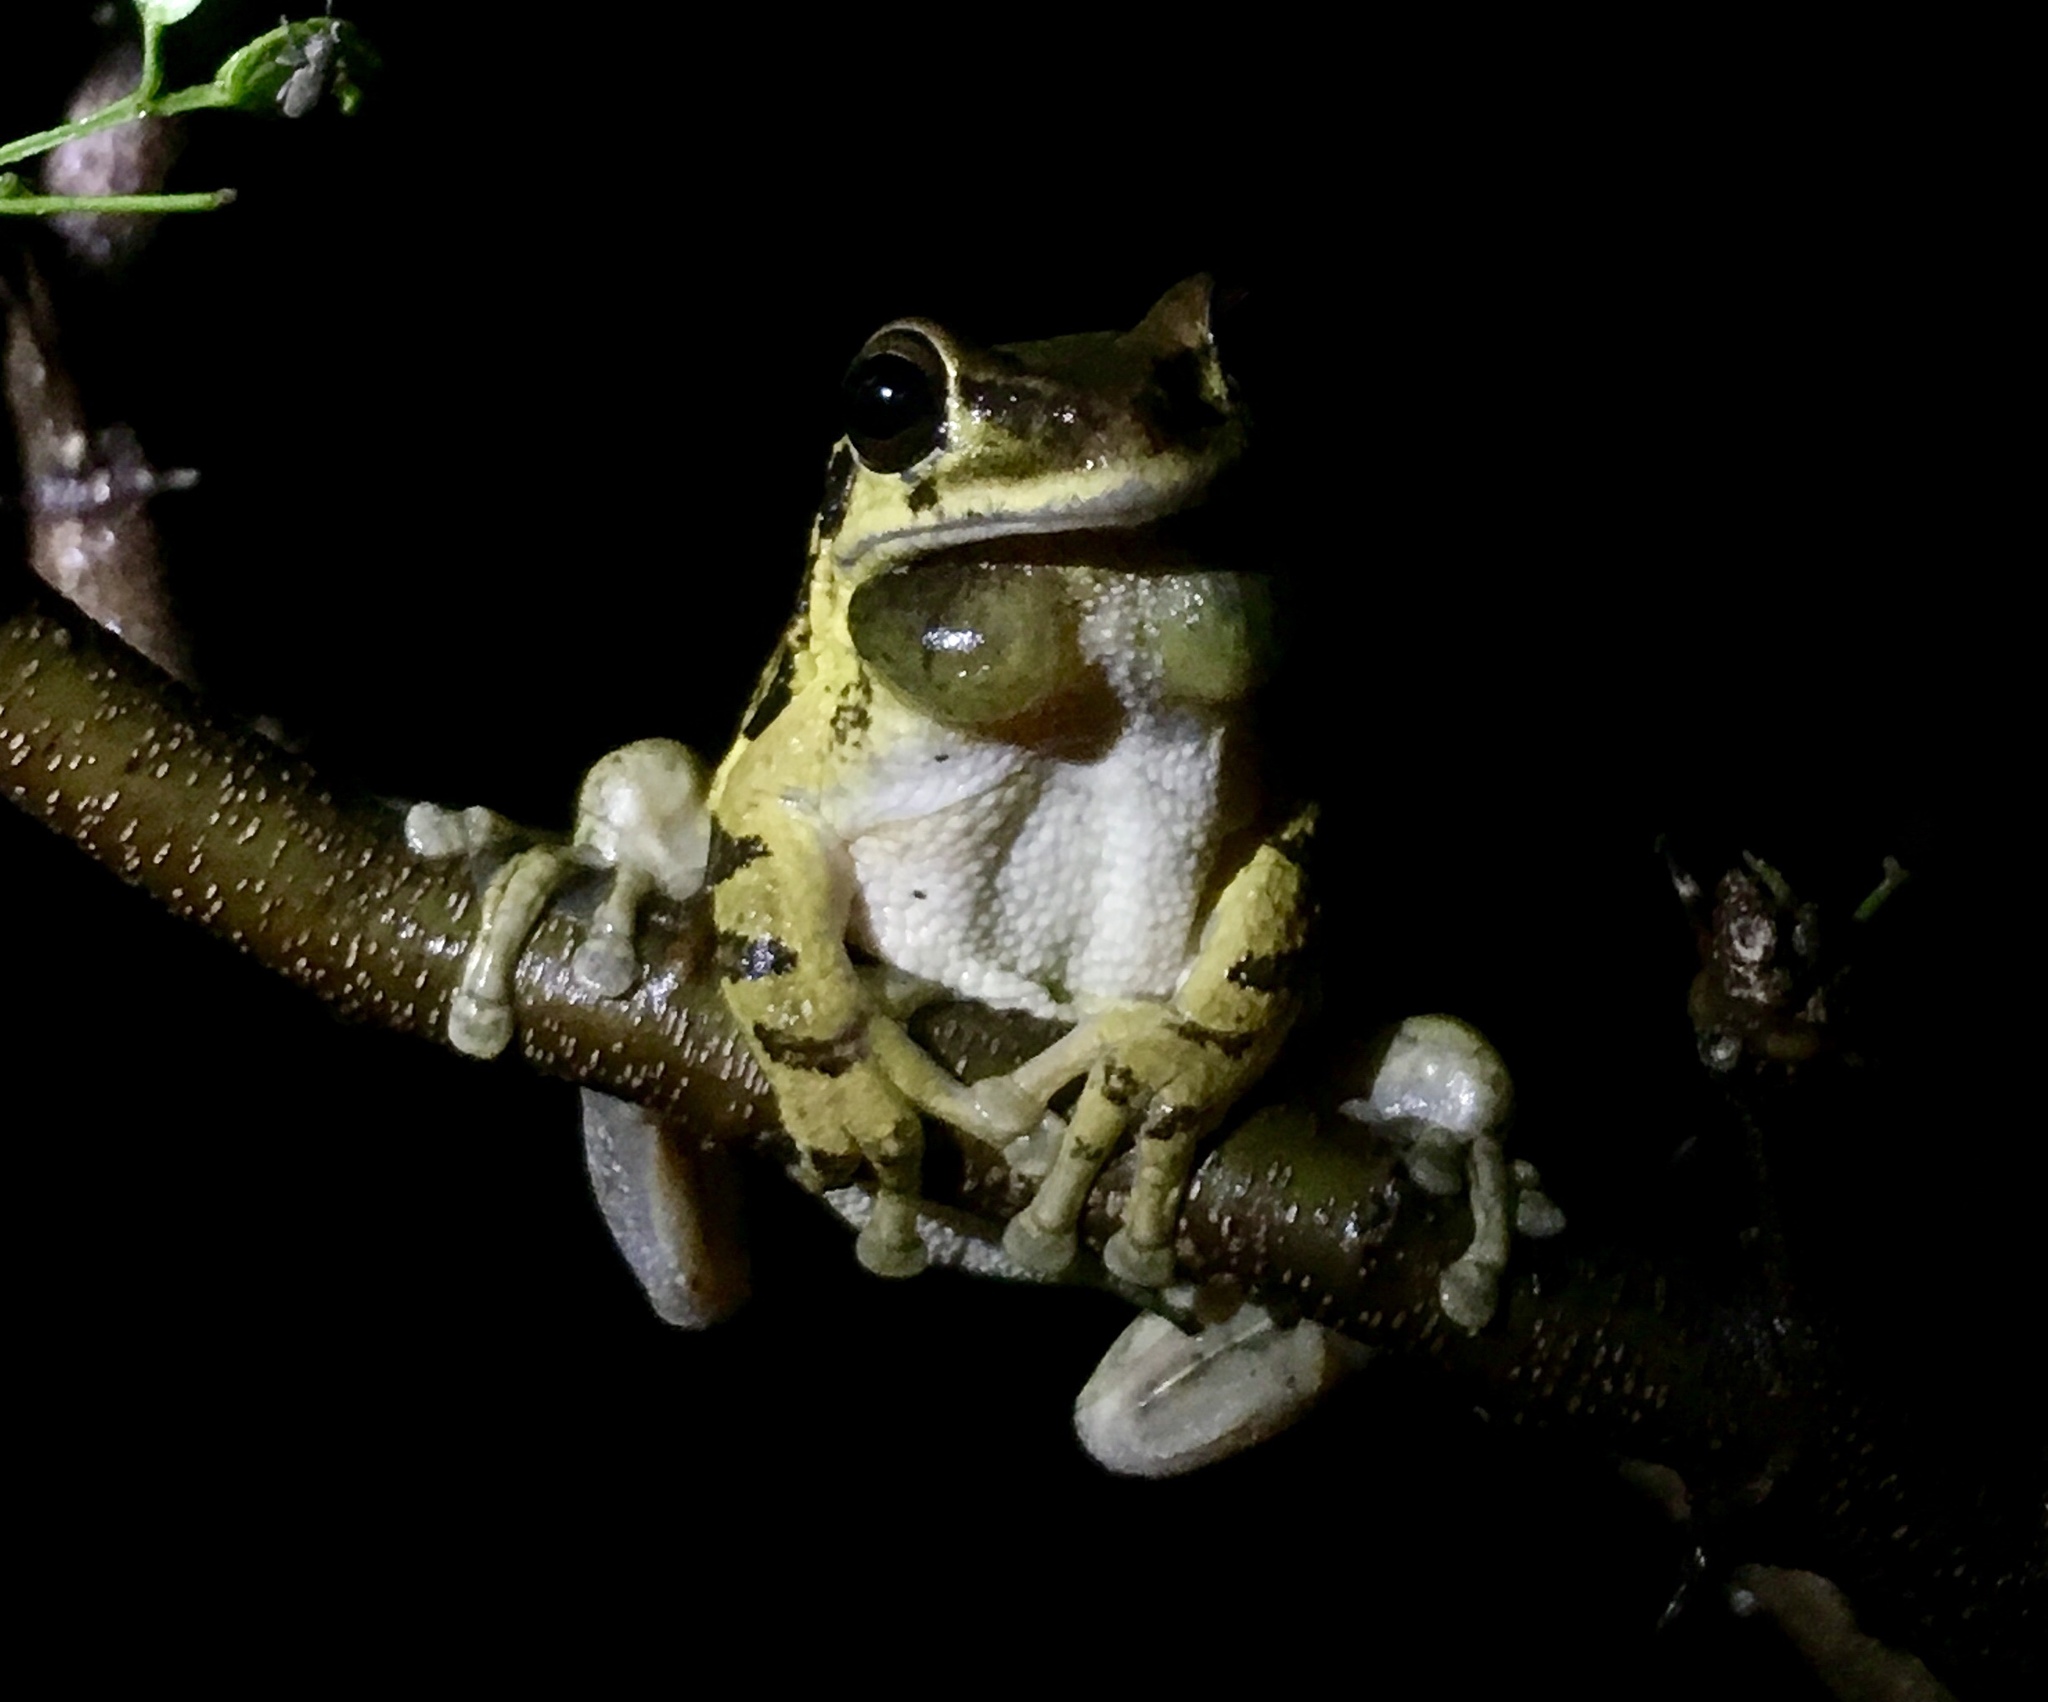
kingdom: Animalia
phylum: Chordata
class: Amphibia
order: Anura
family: Hylidae
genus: Smilisca
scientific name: Smilisca baudinii
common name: Mexican smilisca
